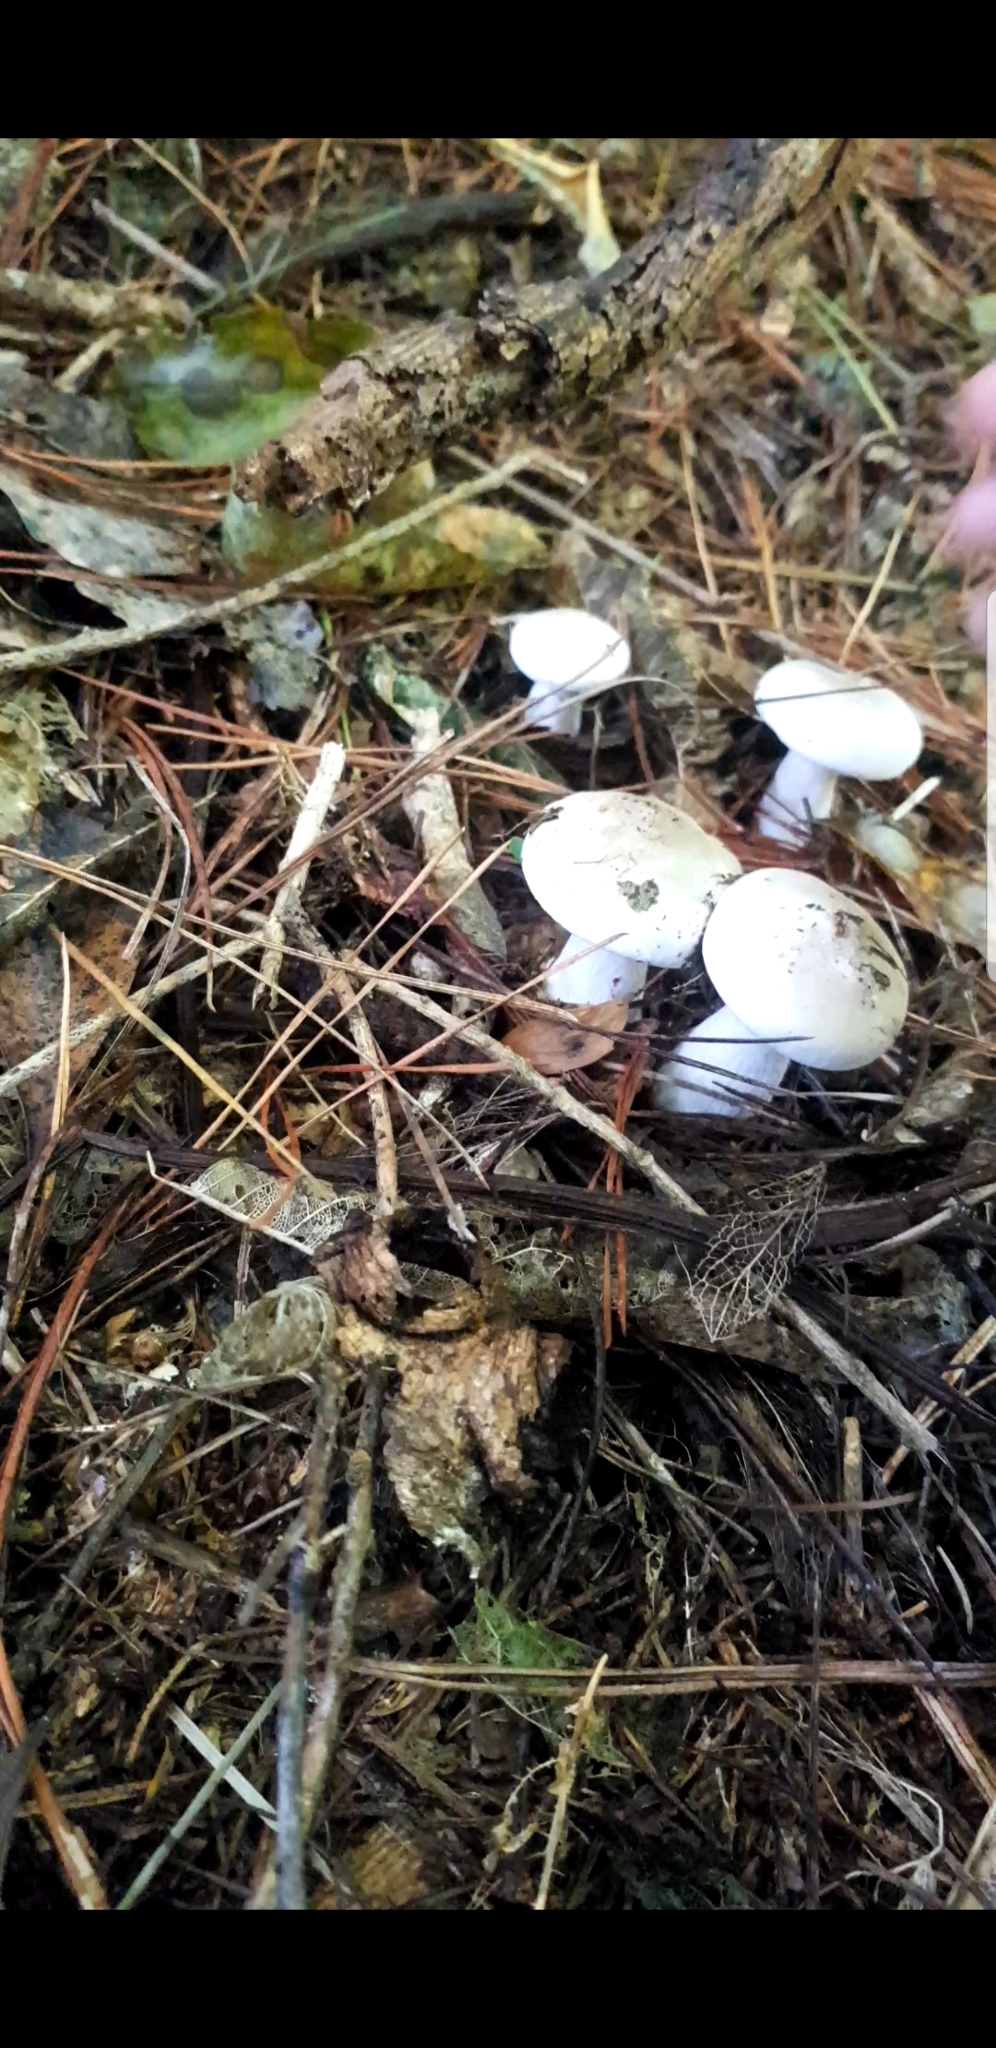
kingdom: Fungi
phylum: Basidiomycota
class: Agaricomycetes
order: Agaricales
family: Tricholomataceae
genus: Clitocybe
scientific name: Clitocybe nebularis
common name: Clouded agaric
